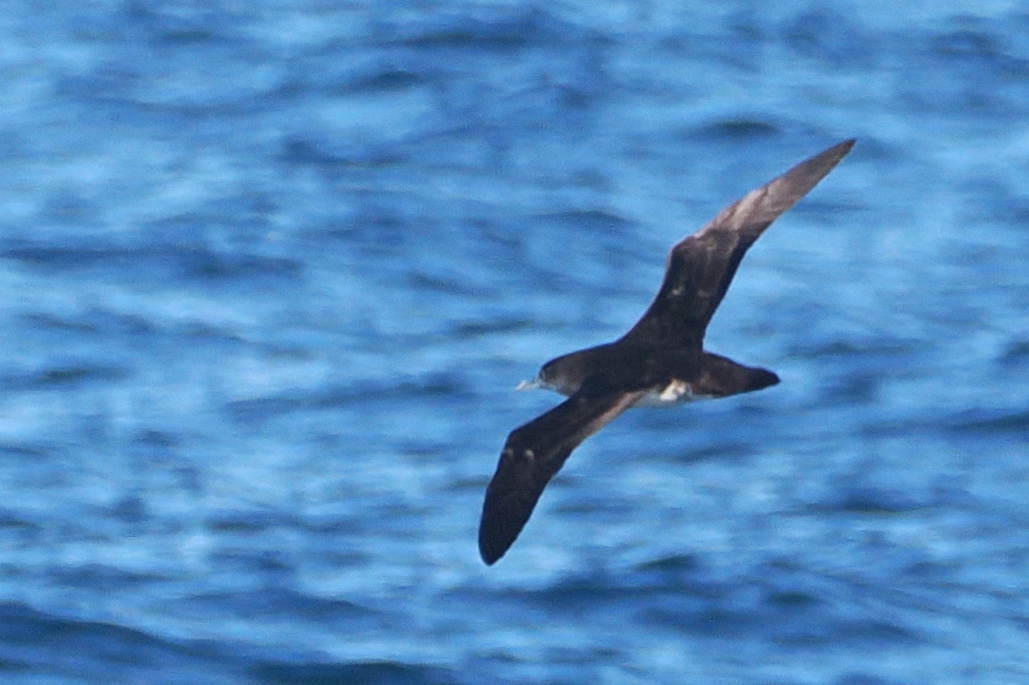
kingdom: Animalia
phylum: Chordata
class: Aves
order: Procellariiformes
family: Procellariidae
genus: Puffinus
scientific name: Puffinus opisthomelas
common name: Black-vented shearwater
